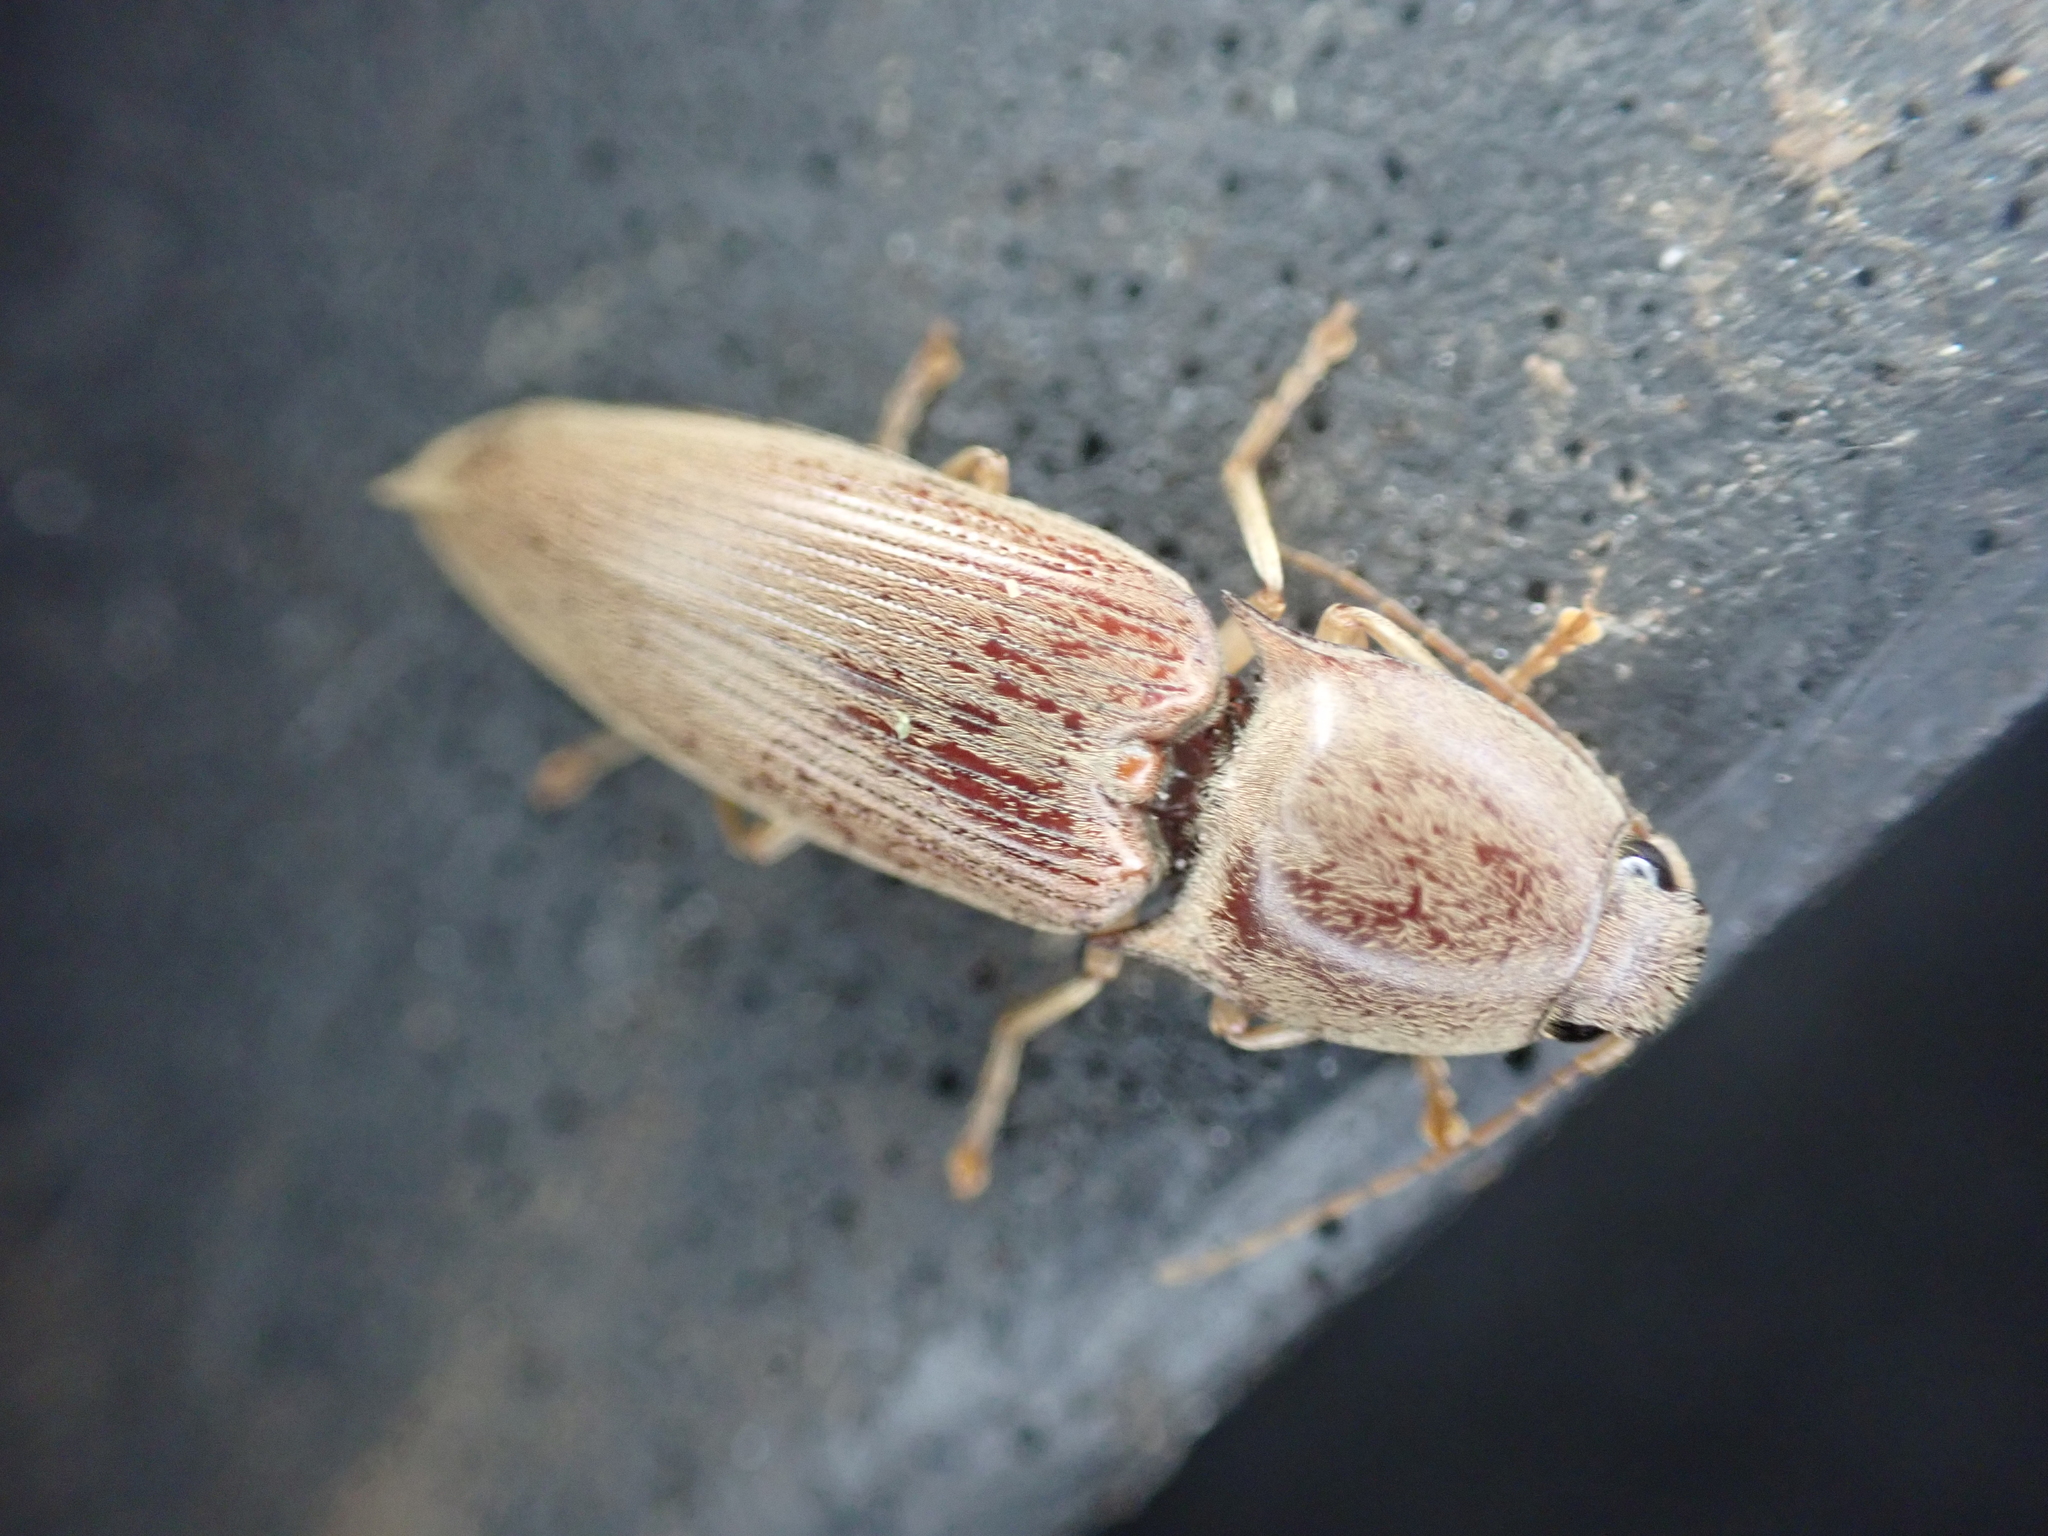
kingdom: Animalia
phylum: Arthropoda
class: Insecta
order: Coleoptera
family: Elateridae
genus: Monocrepidius
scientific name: Monocrepidius lividus
